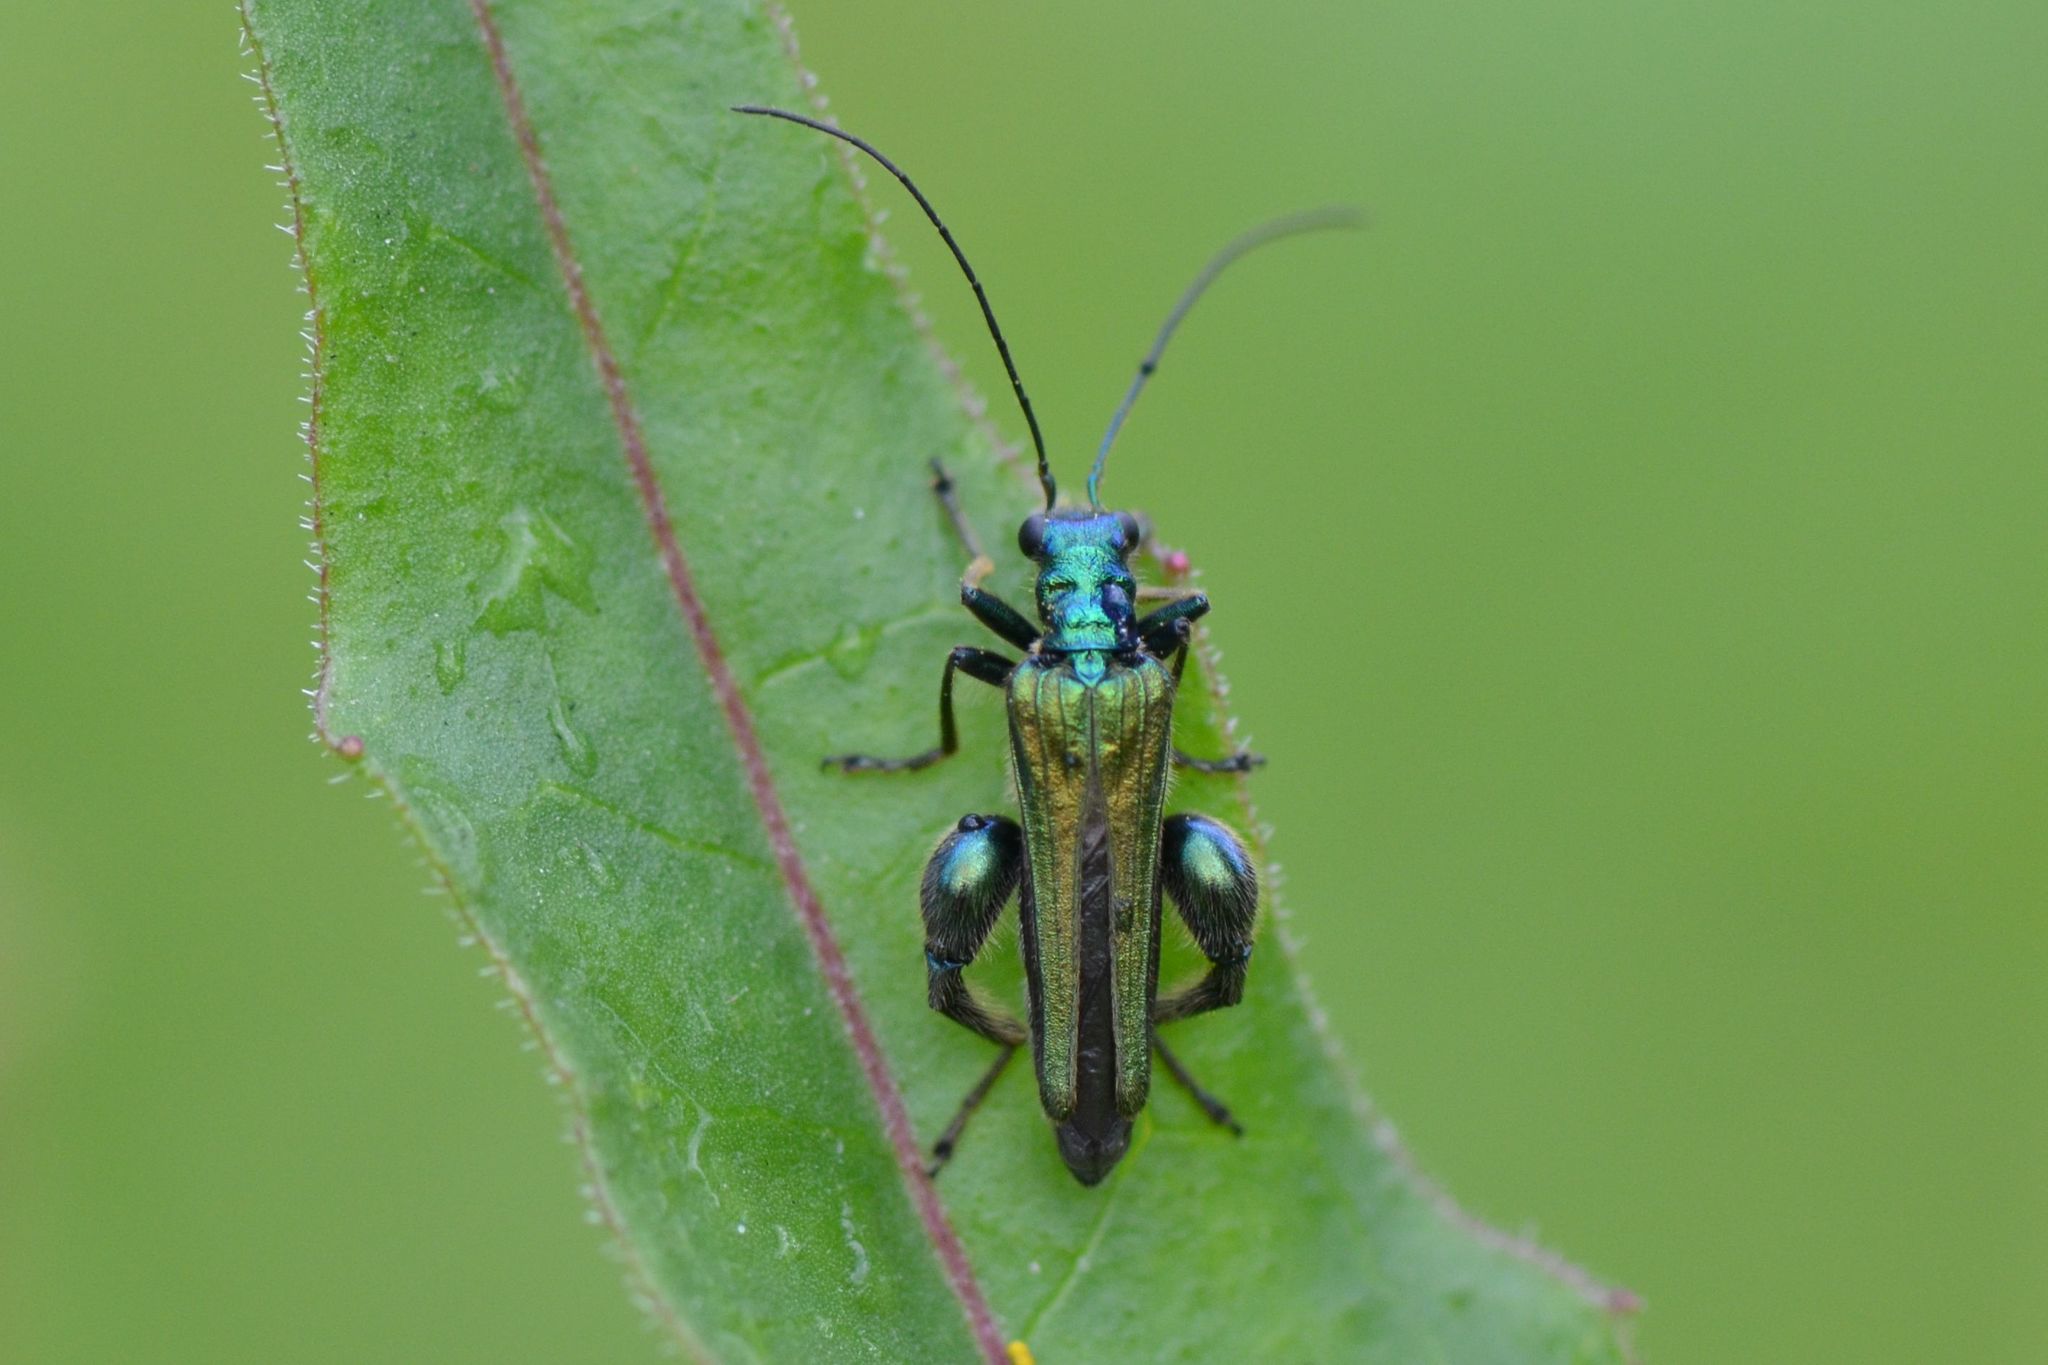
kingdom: Animalia
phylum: Arthropoda
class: Insecta
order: Coleoptera
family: Oedemeridae
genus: Oedemera
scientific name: Oedemera nobilis
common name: Swollen-thighed beetle
